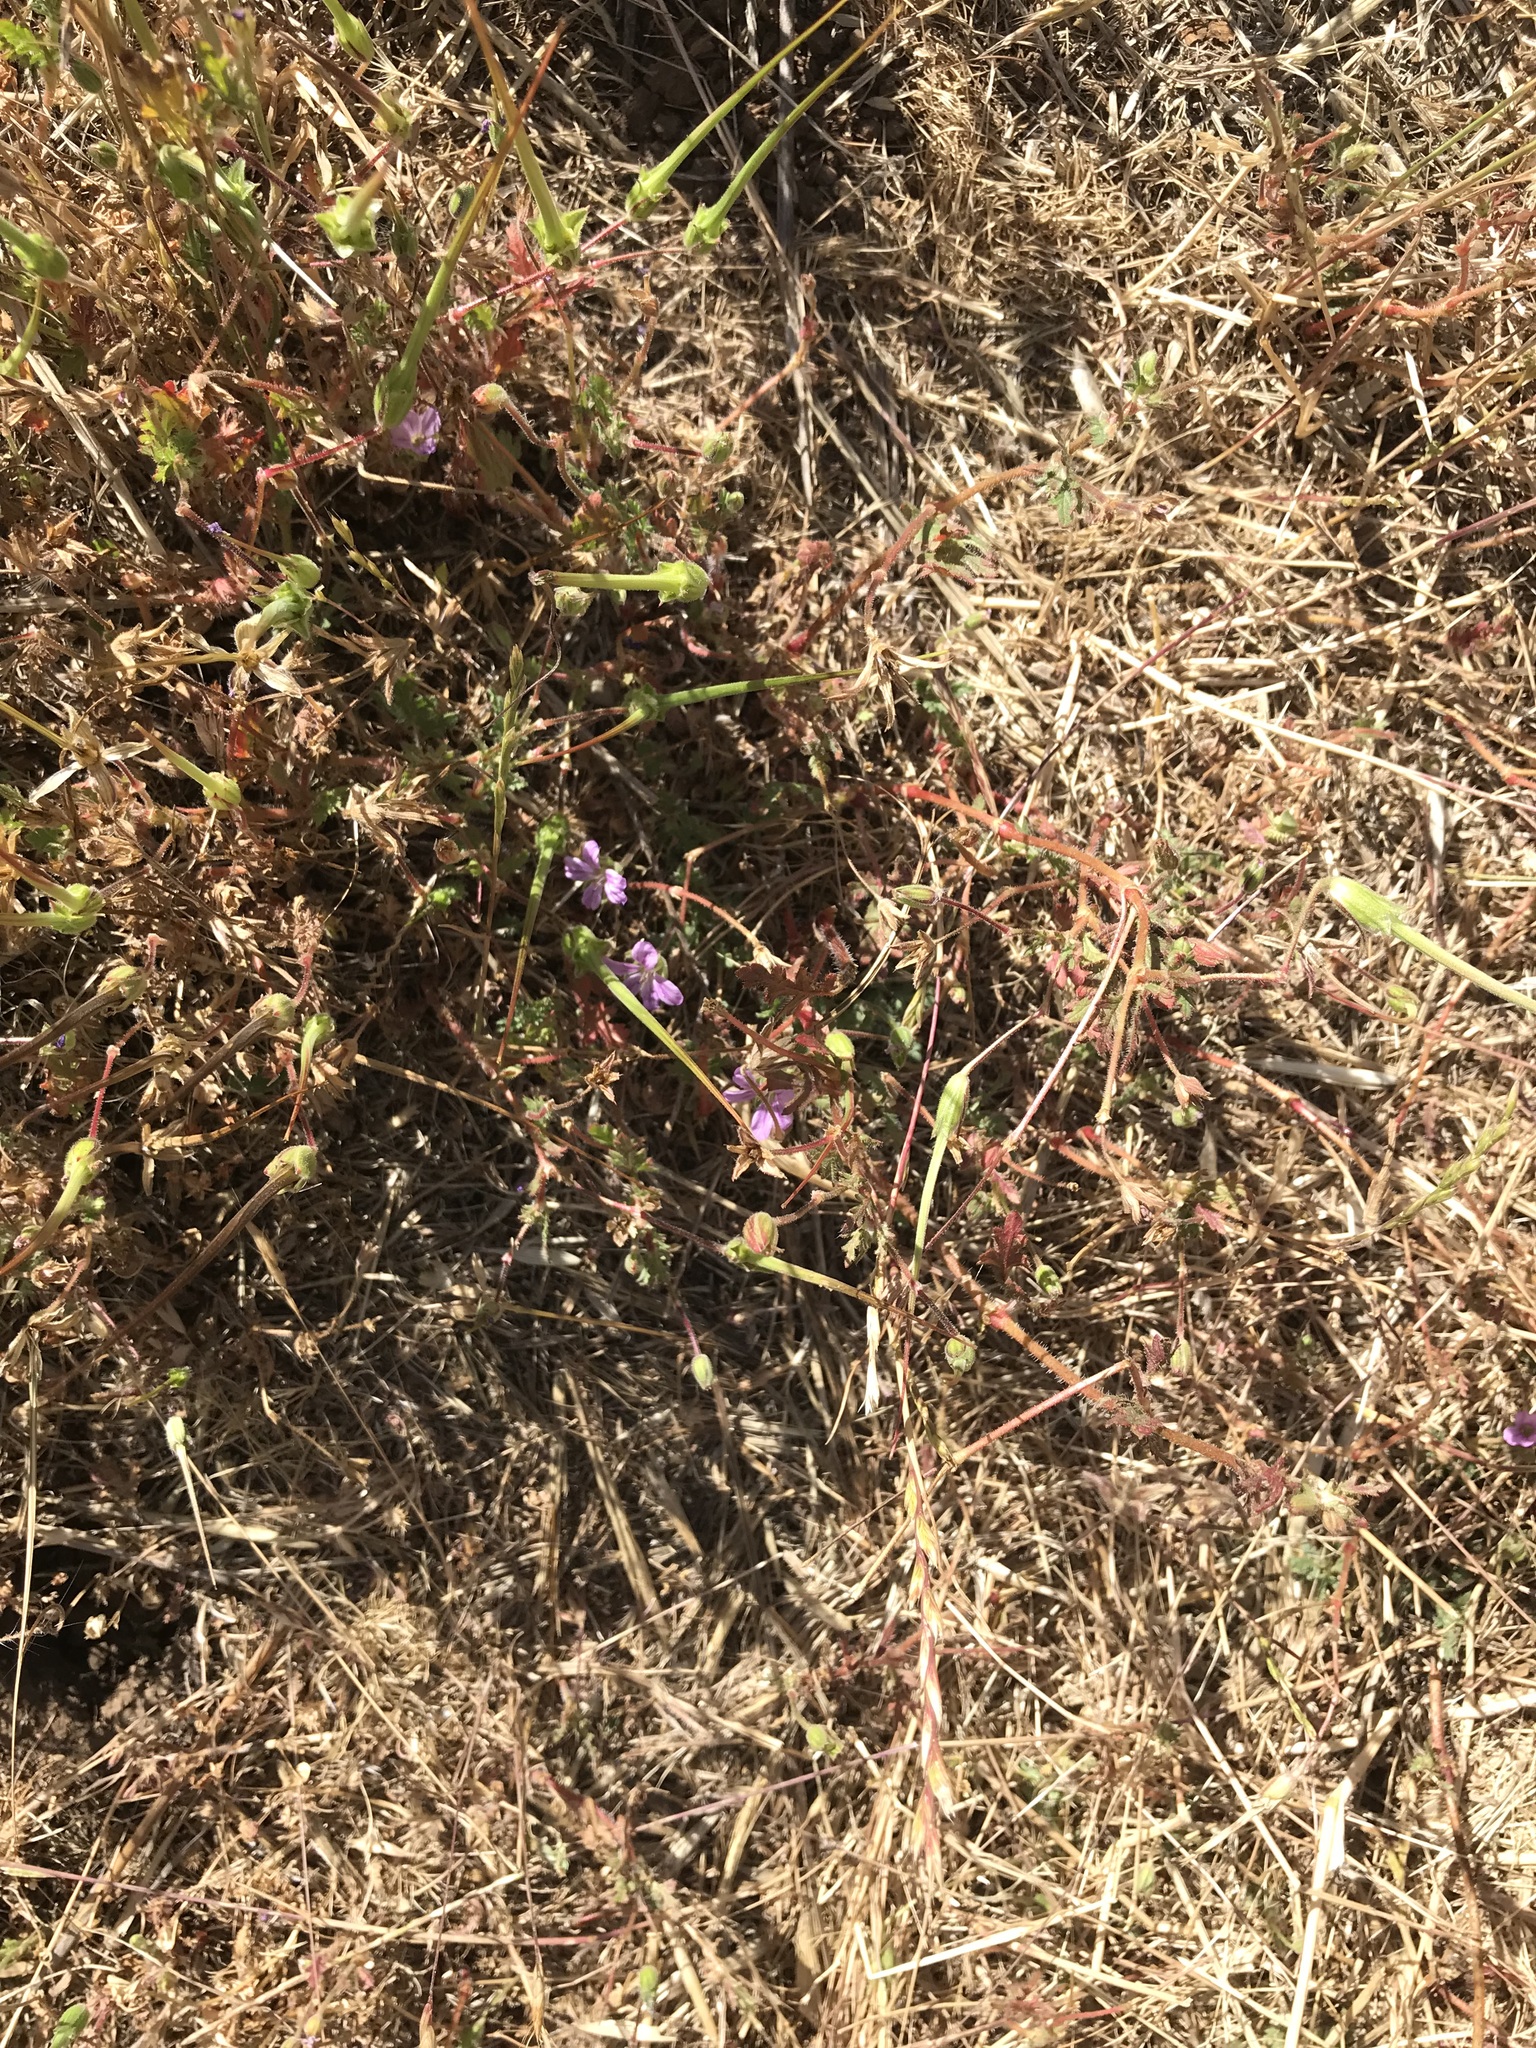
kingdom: Plantae
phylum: Tracheophyta
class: Magnoliopsida
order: Geraniales
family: Geraniaceae
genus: Erodium
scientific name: Erodium botrys
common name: Mediterranean stork's-bill
